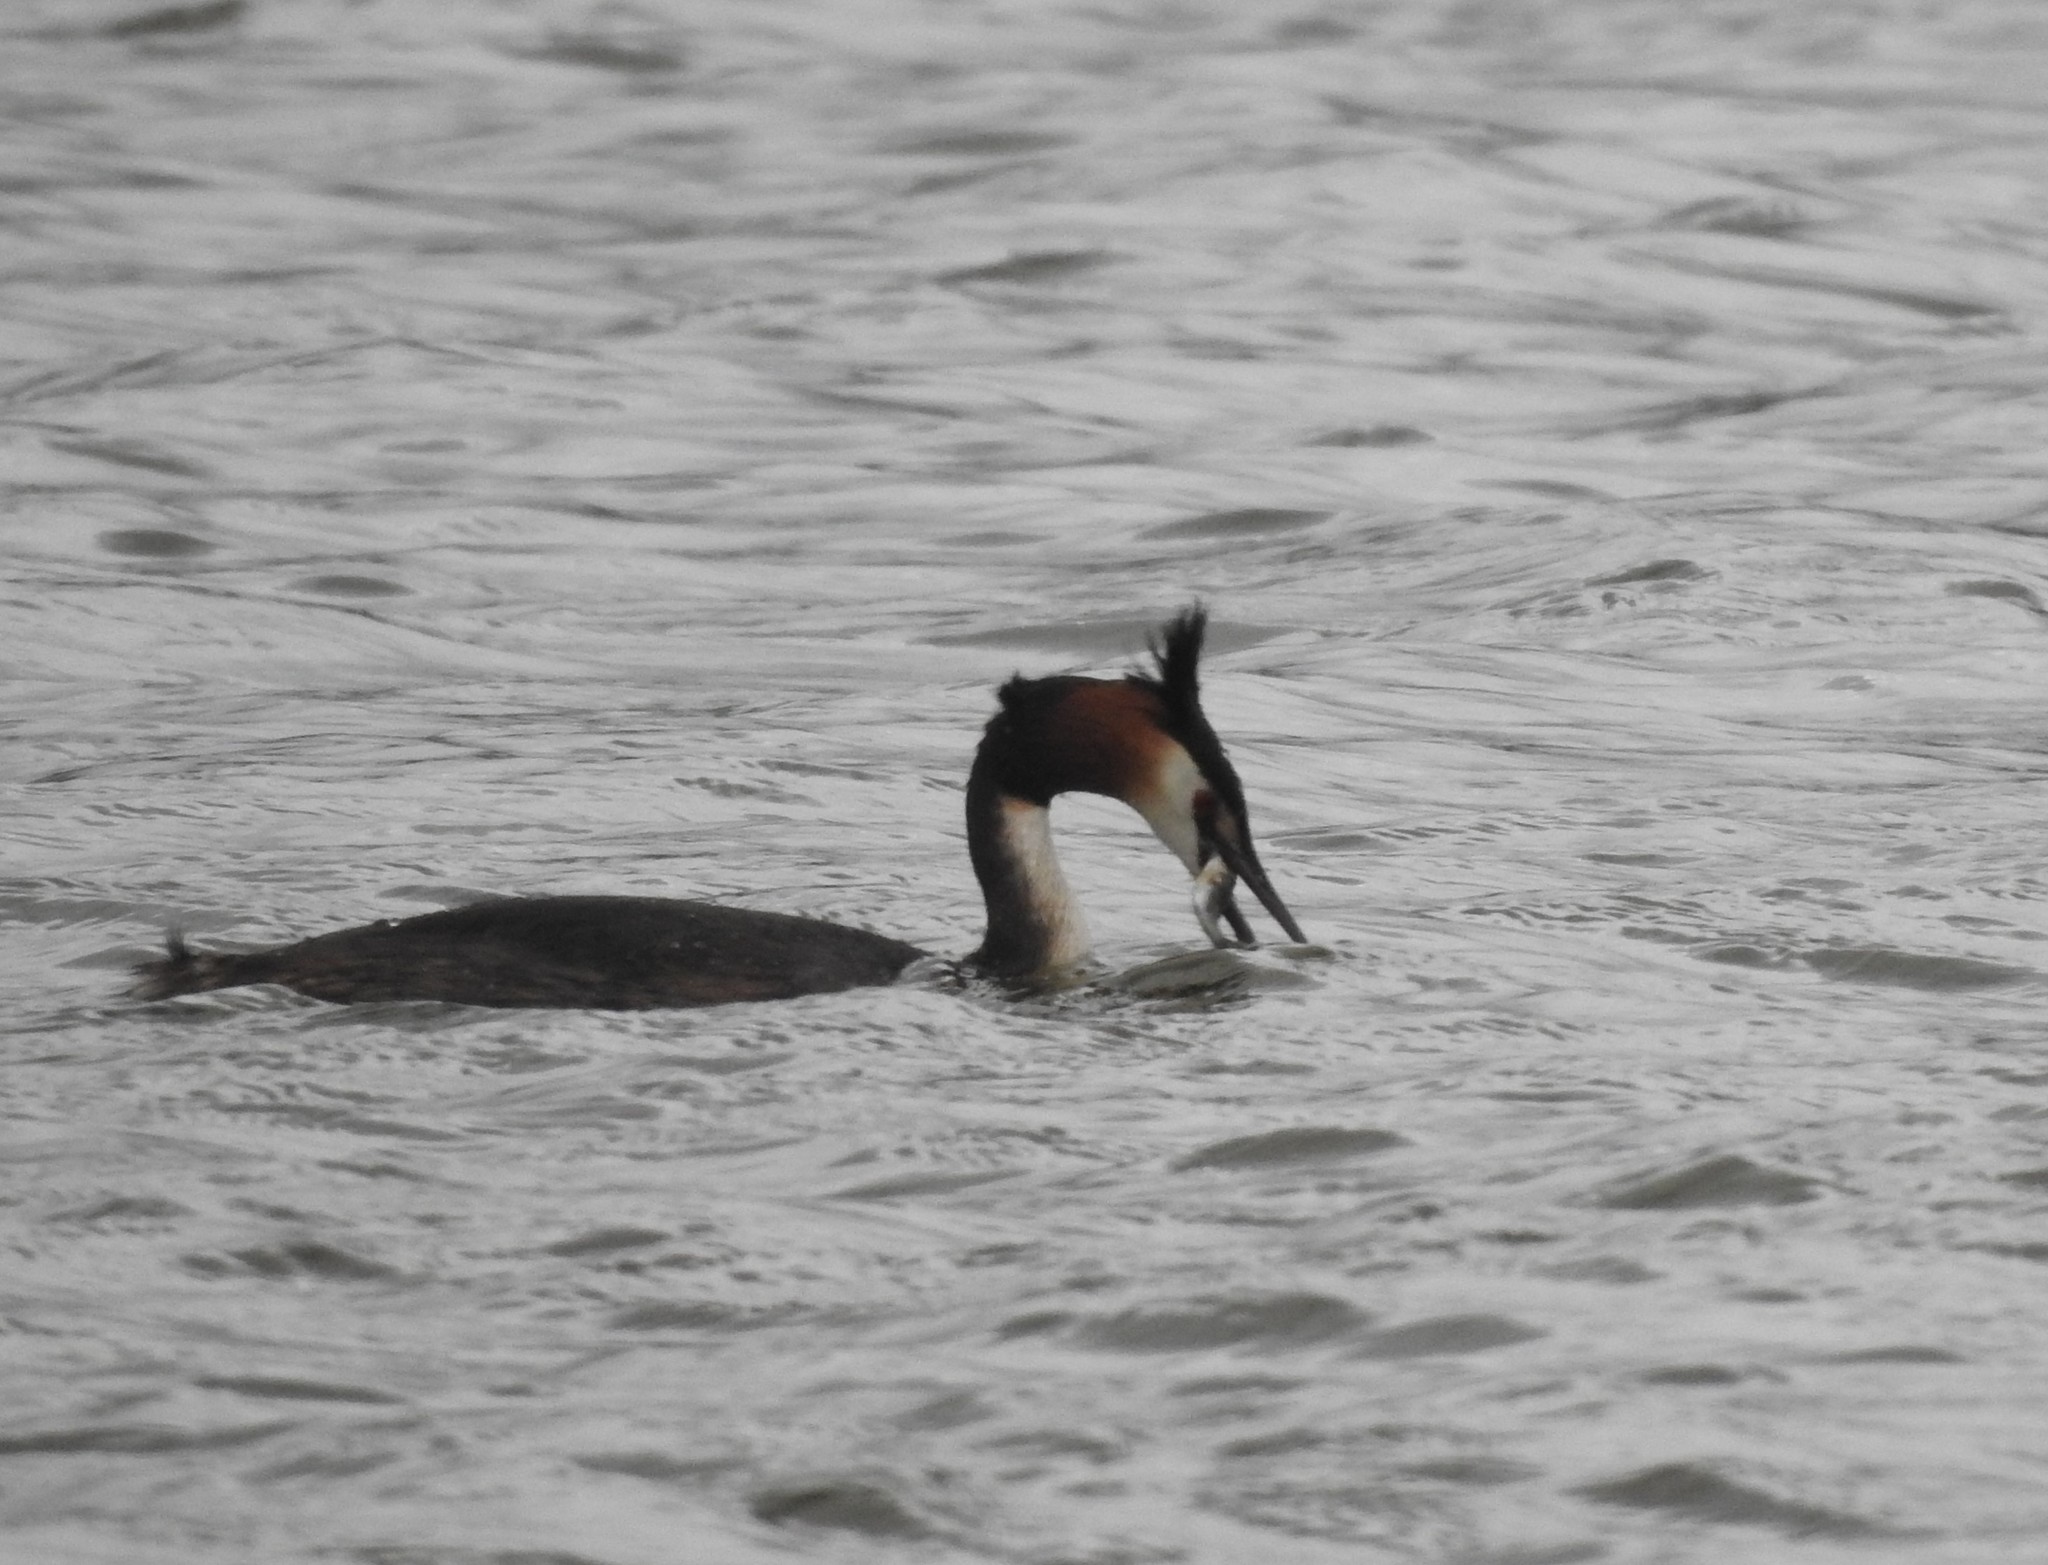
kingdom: Animalia
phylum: Chordata
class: Aves
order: Podicipediformes
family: Podicipedidae
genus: Podiceps
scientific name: Podiceps cristatus
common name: Great crested grebe
